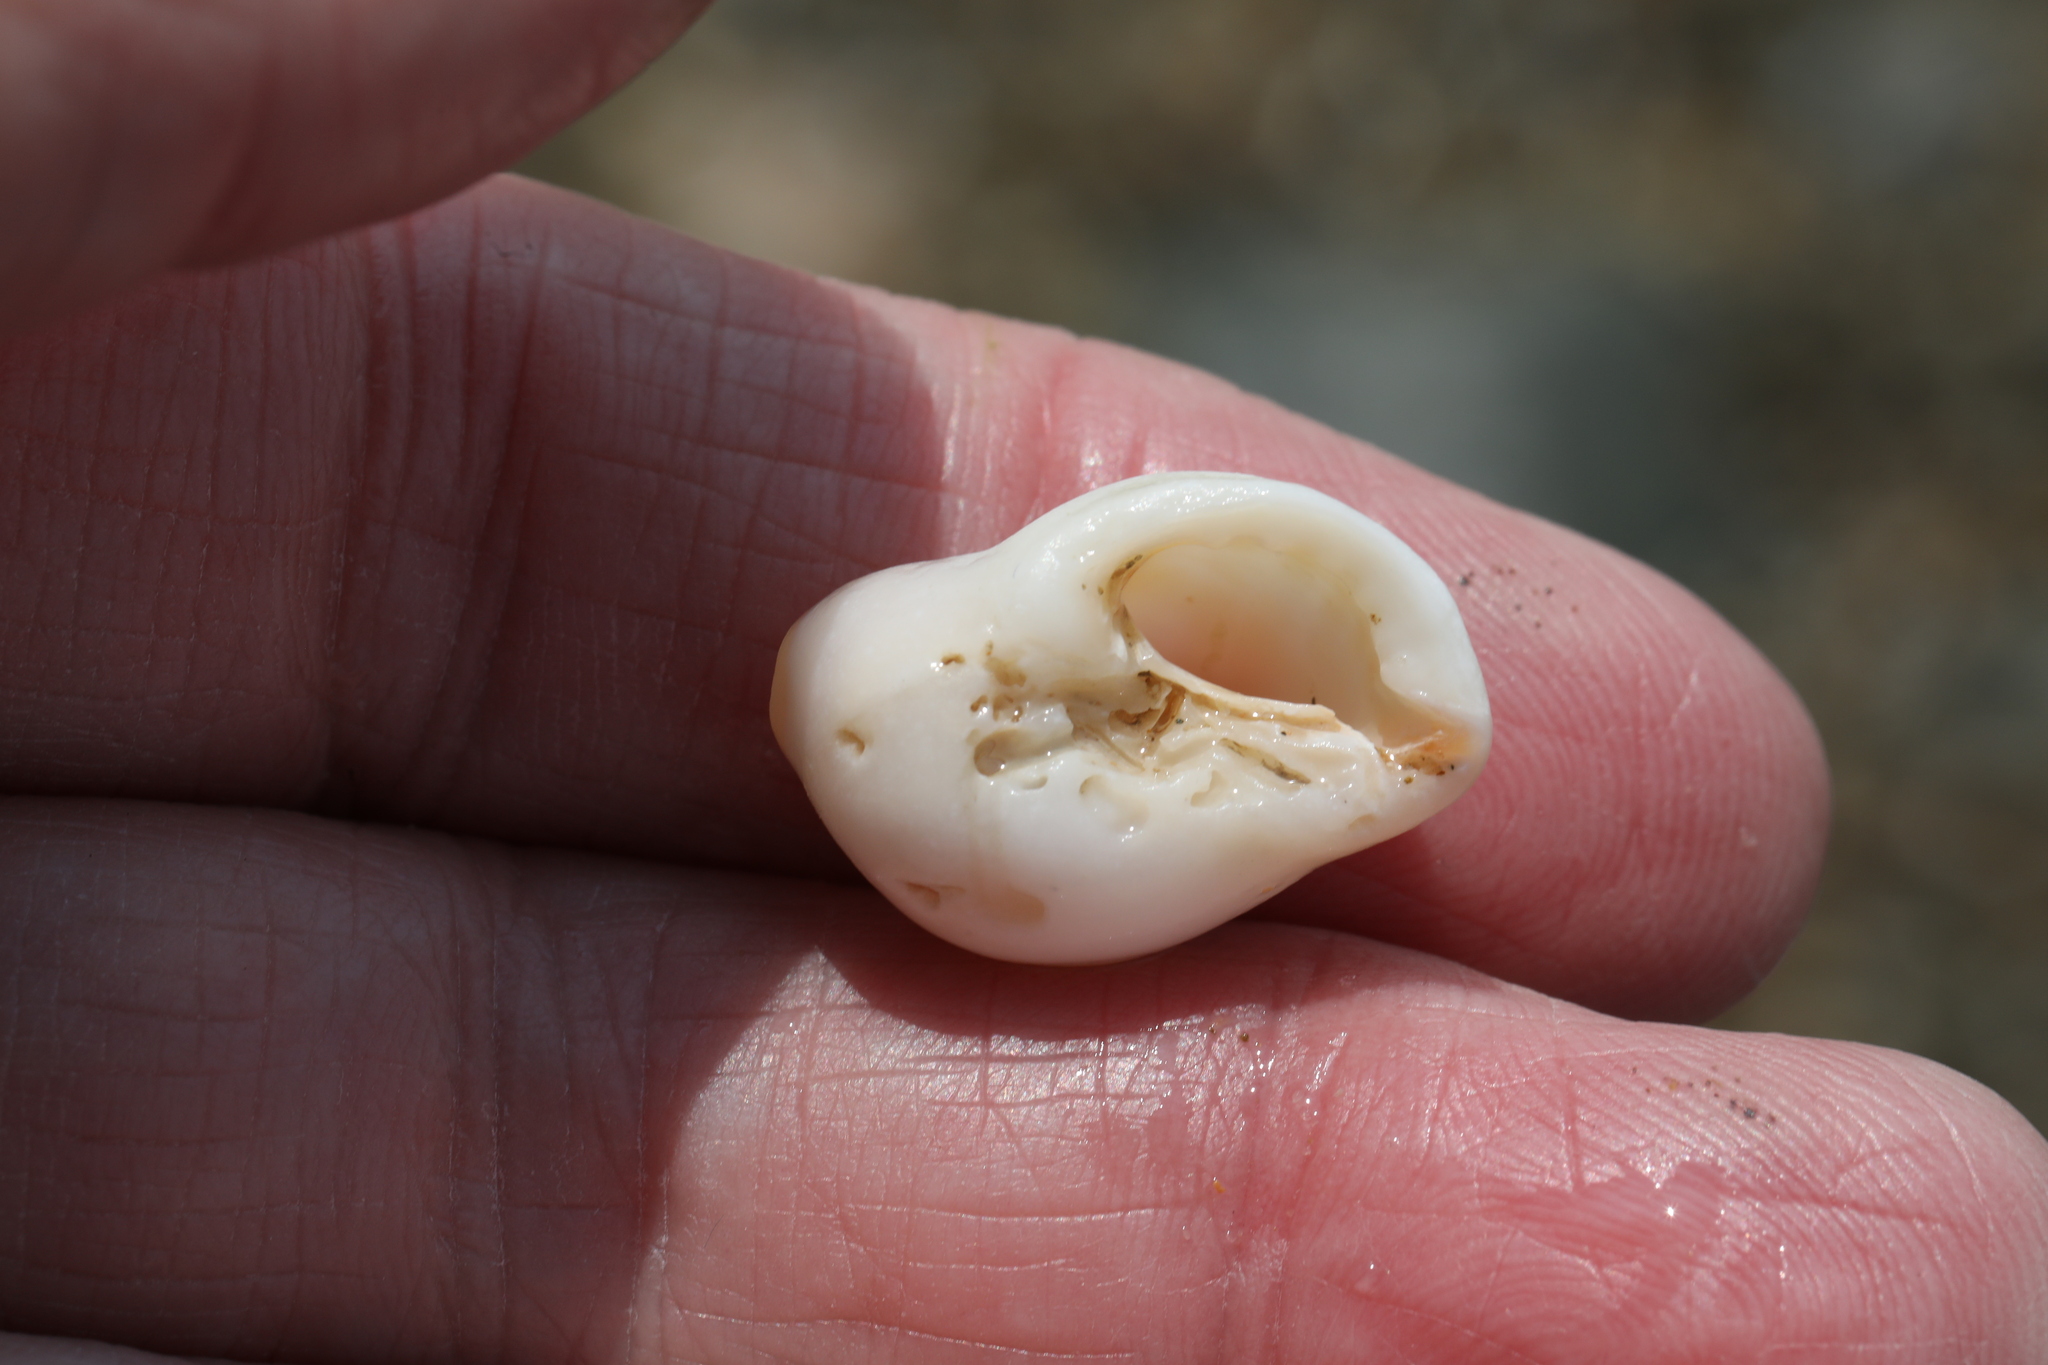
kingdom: Animalia
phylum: Mollusca
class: Gastropoda
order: Neogastropoda
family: Muricidae
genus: Nucella
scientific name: Nucella lapillus
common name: Dog whelk
